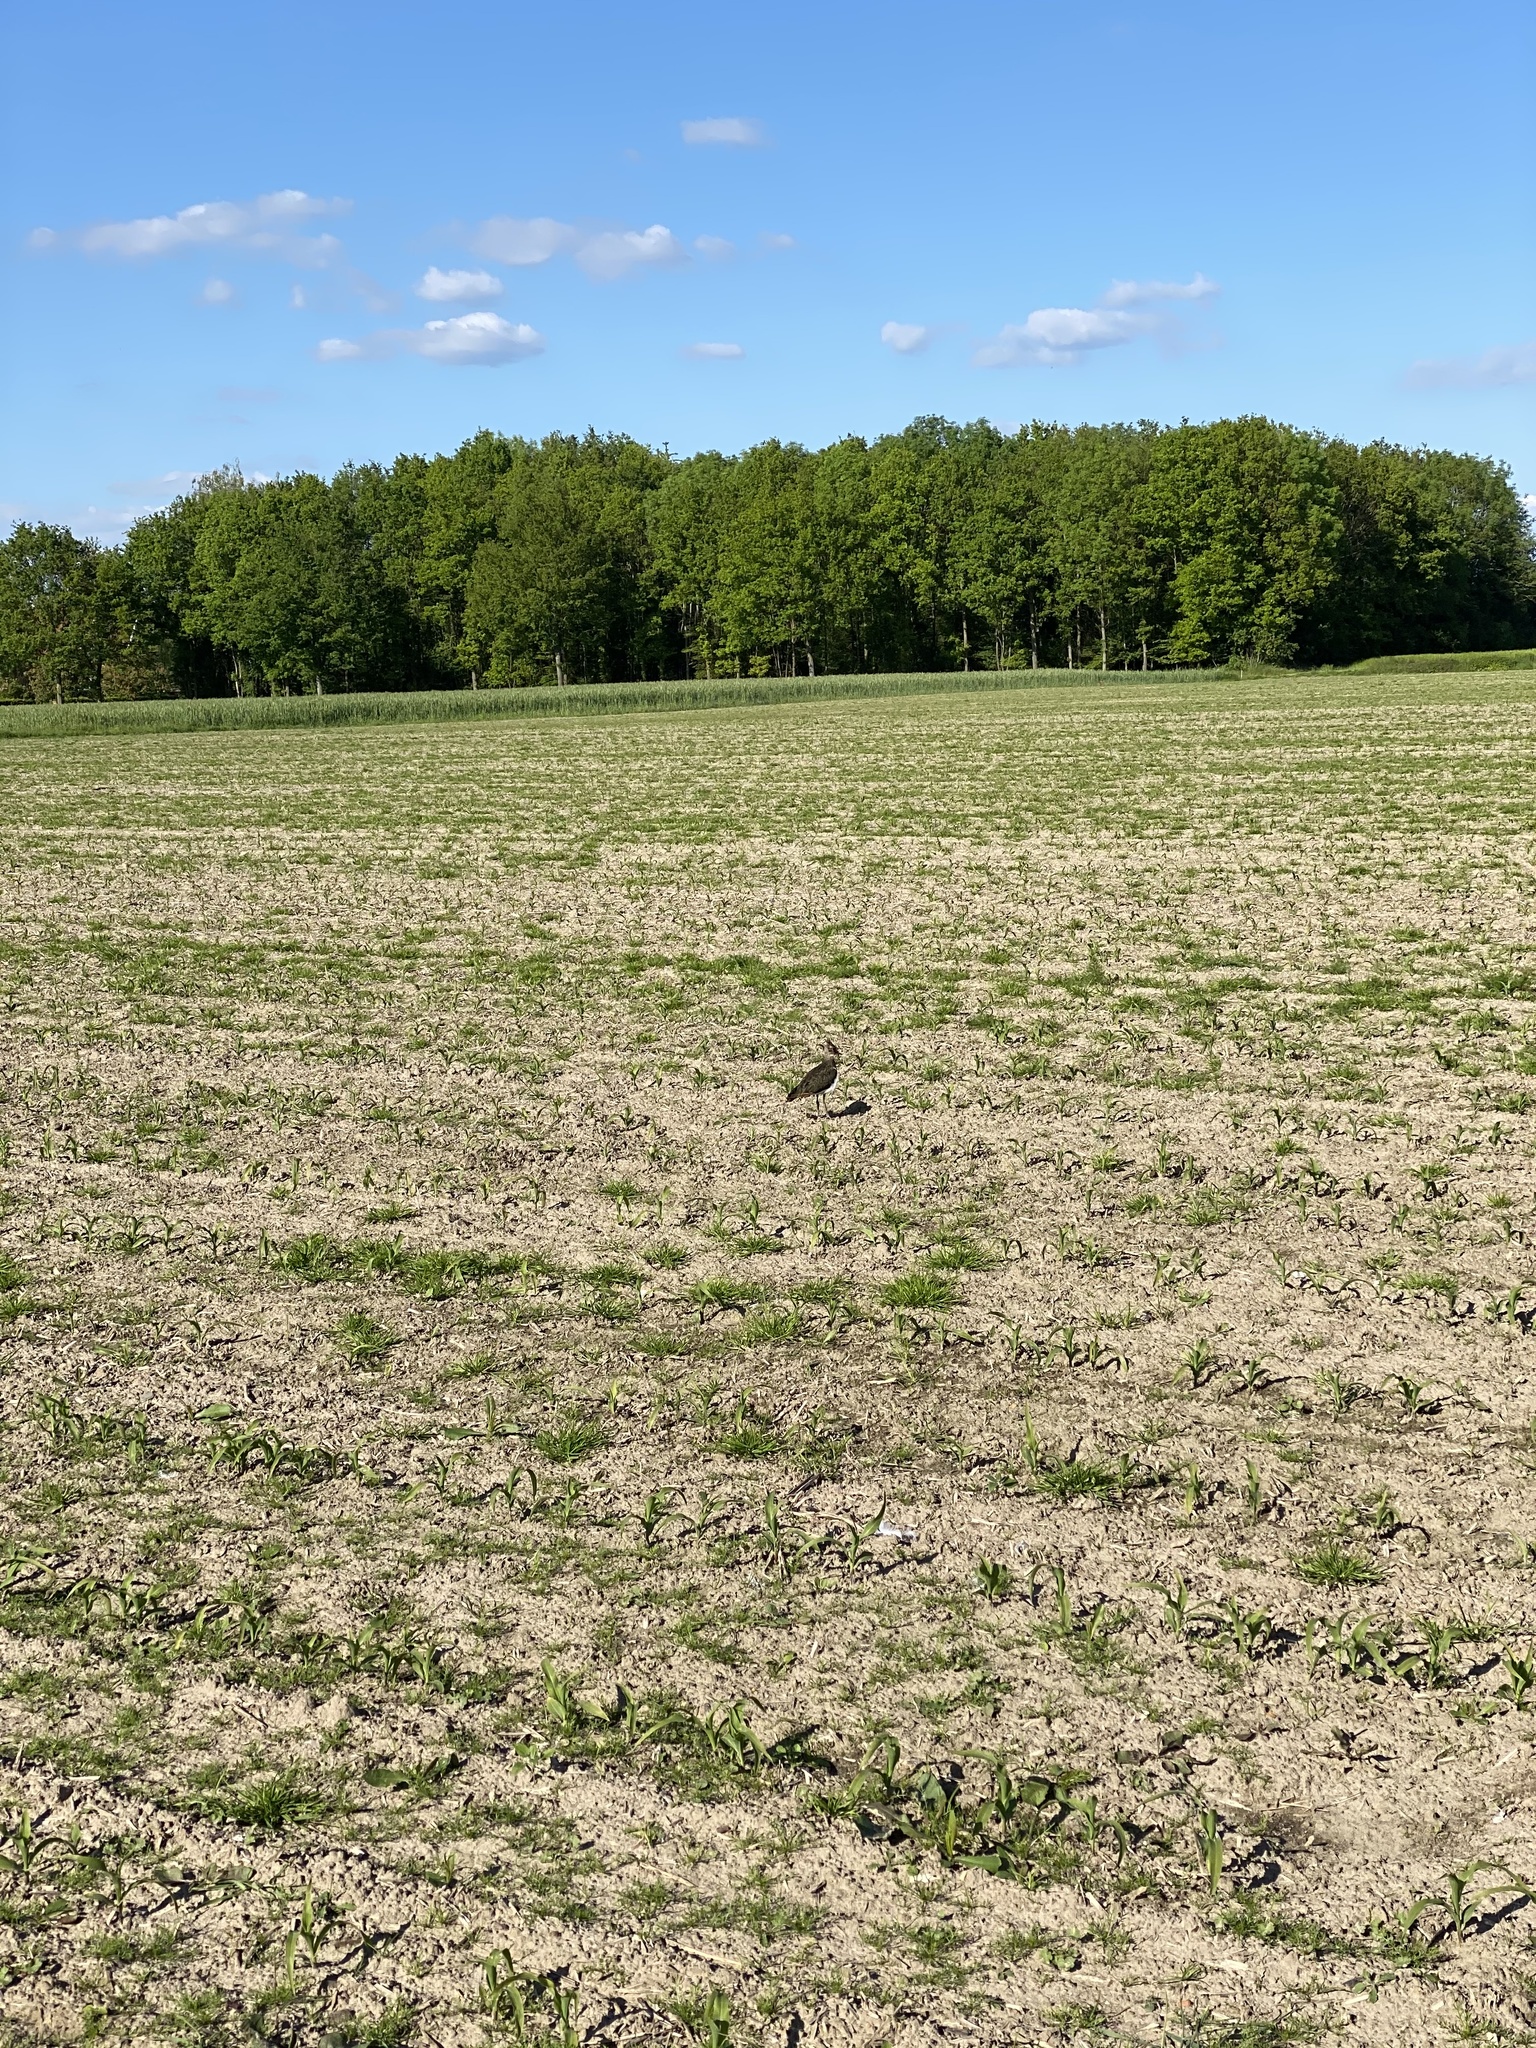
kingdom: Animalia
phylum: Chordata
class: Aves
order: Charadriiformes
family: Charadriidae
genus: Vanellus
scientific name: Vanellus vanellus
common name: Northern lapwing
